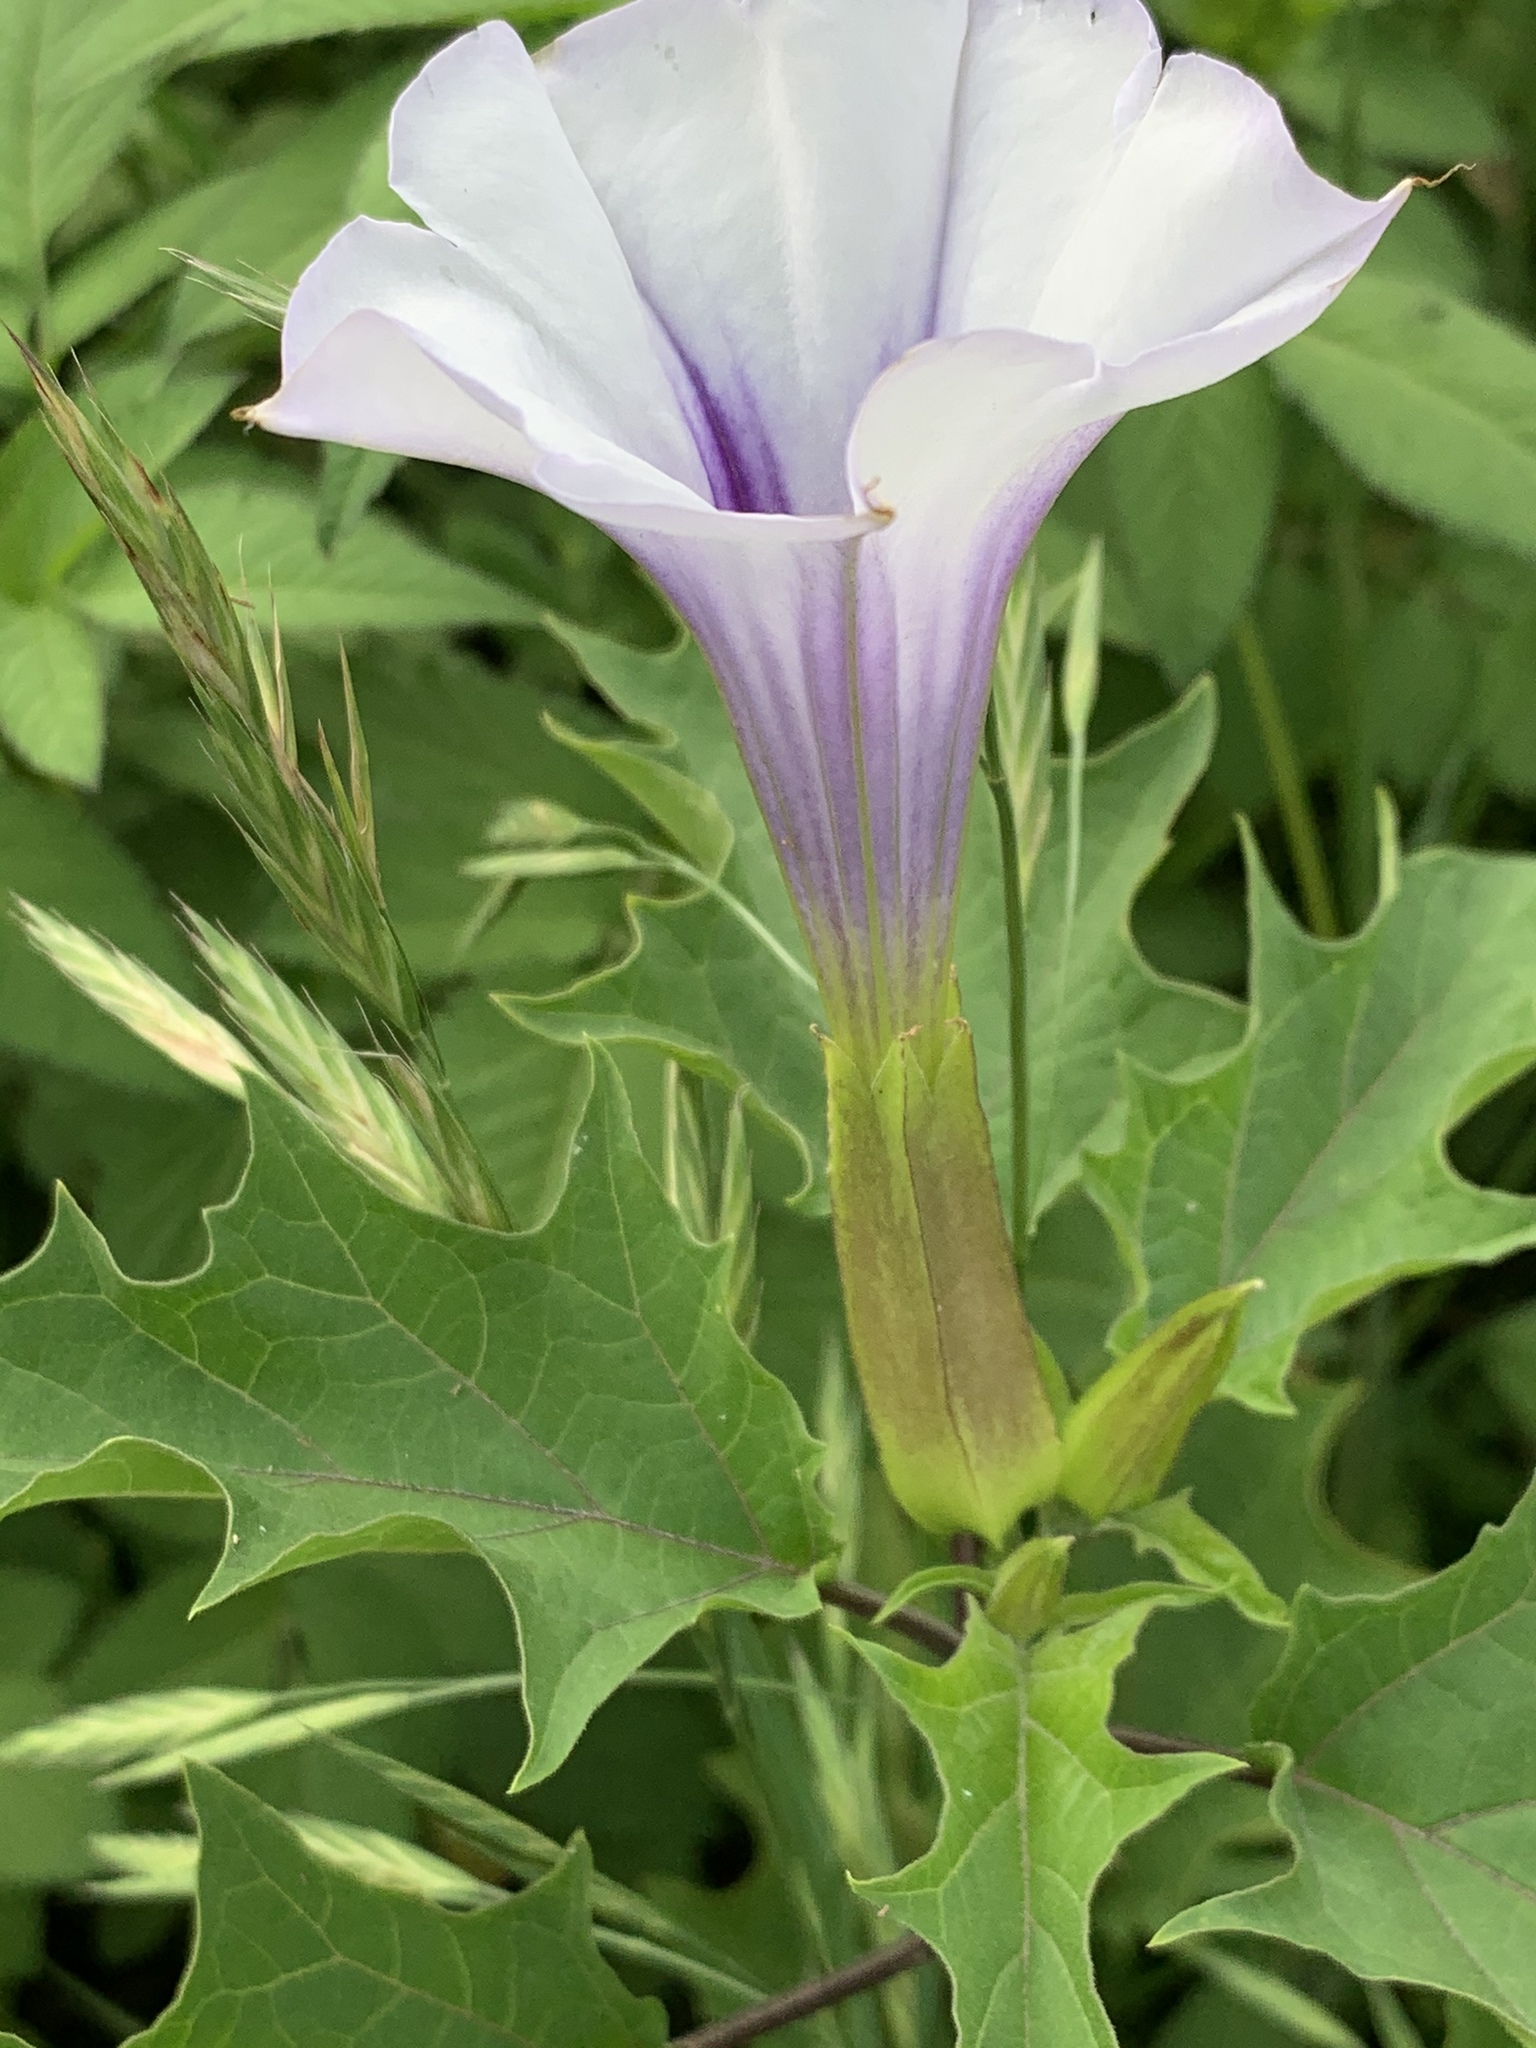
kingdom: Plantae
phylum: Tracheophyta
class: Magnoliopsida
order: Solanales
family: Solanaceae
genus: Datura
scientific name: Datura stramonium
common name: Thorn-apple
